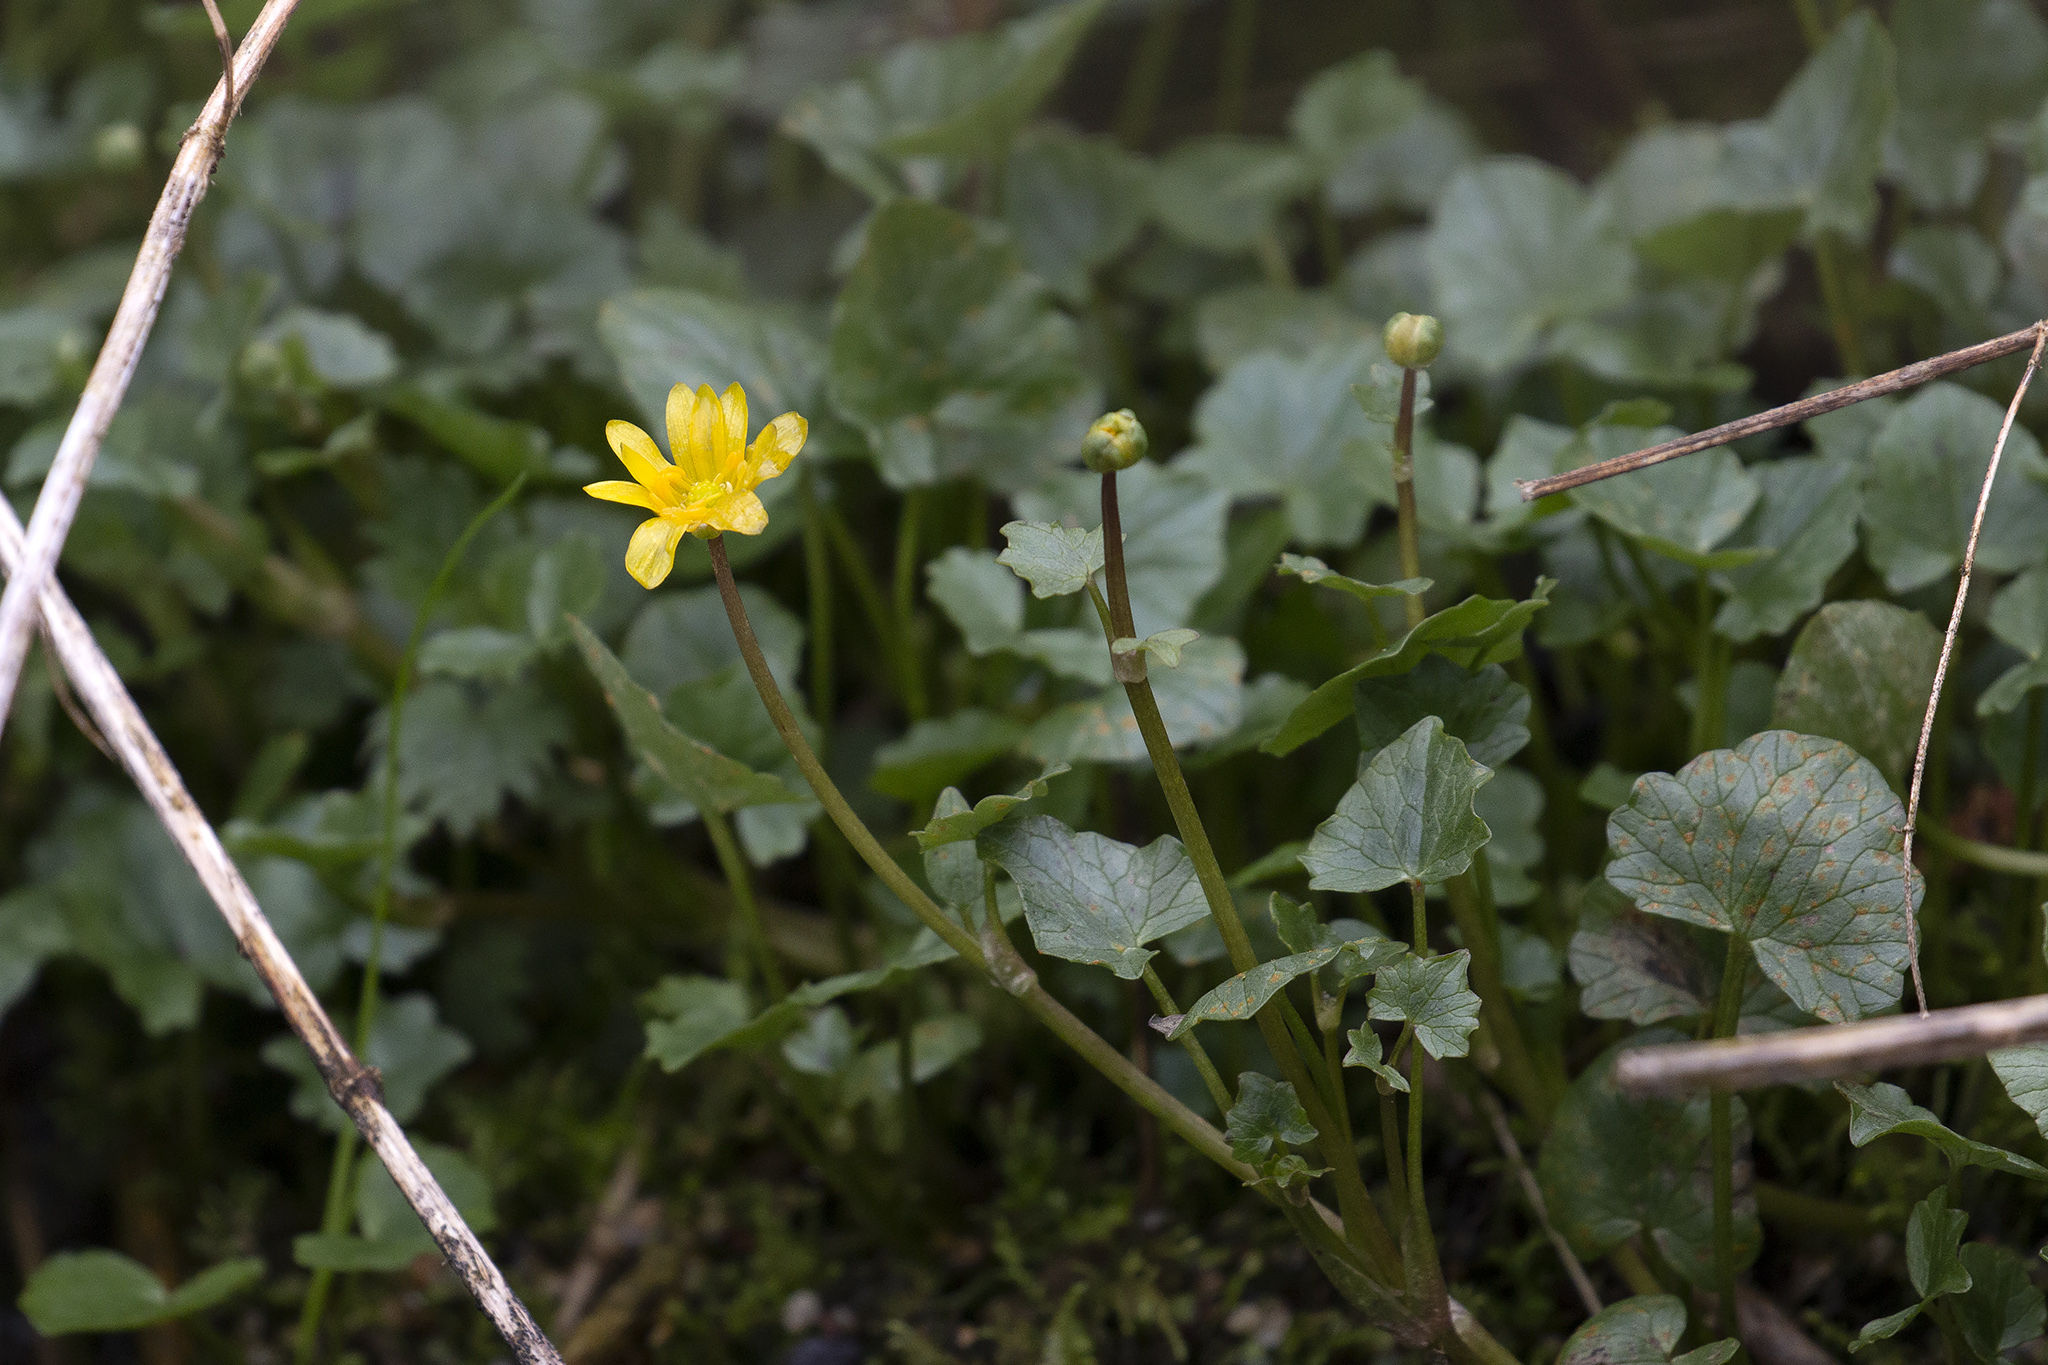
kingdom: Plantae
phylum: Tracheophyta
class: Magnoliopsida
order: Ranunculales
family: Ranunculaceae
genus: Ficaria
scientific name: Ficaria verna
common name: Lesser celandine
